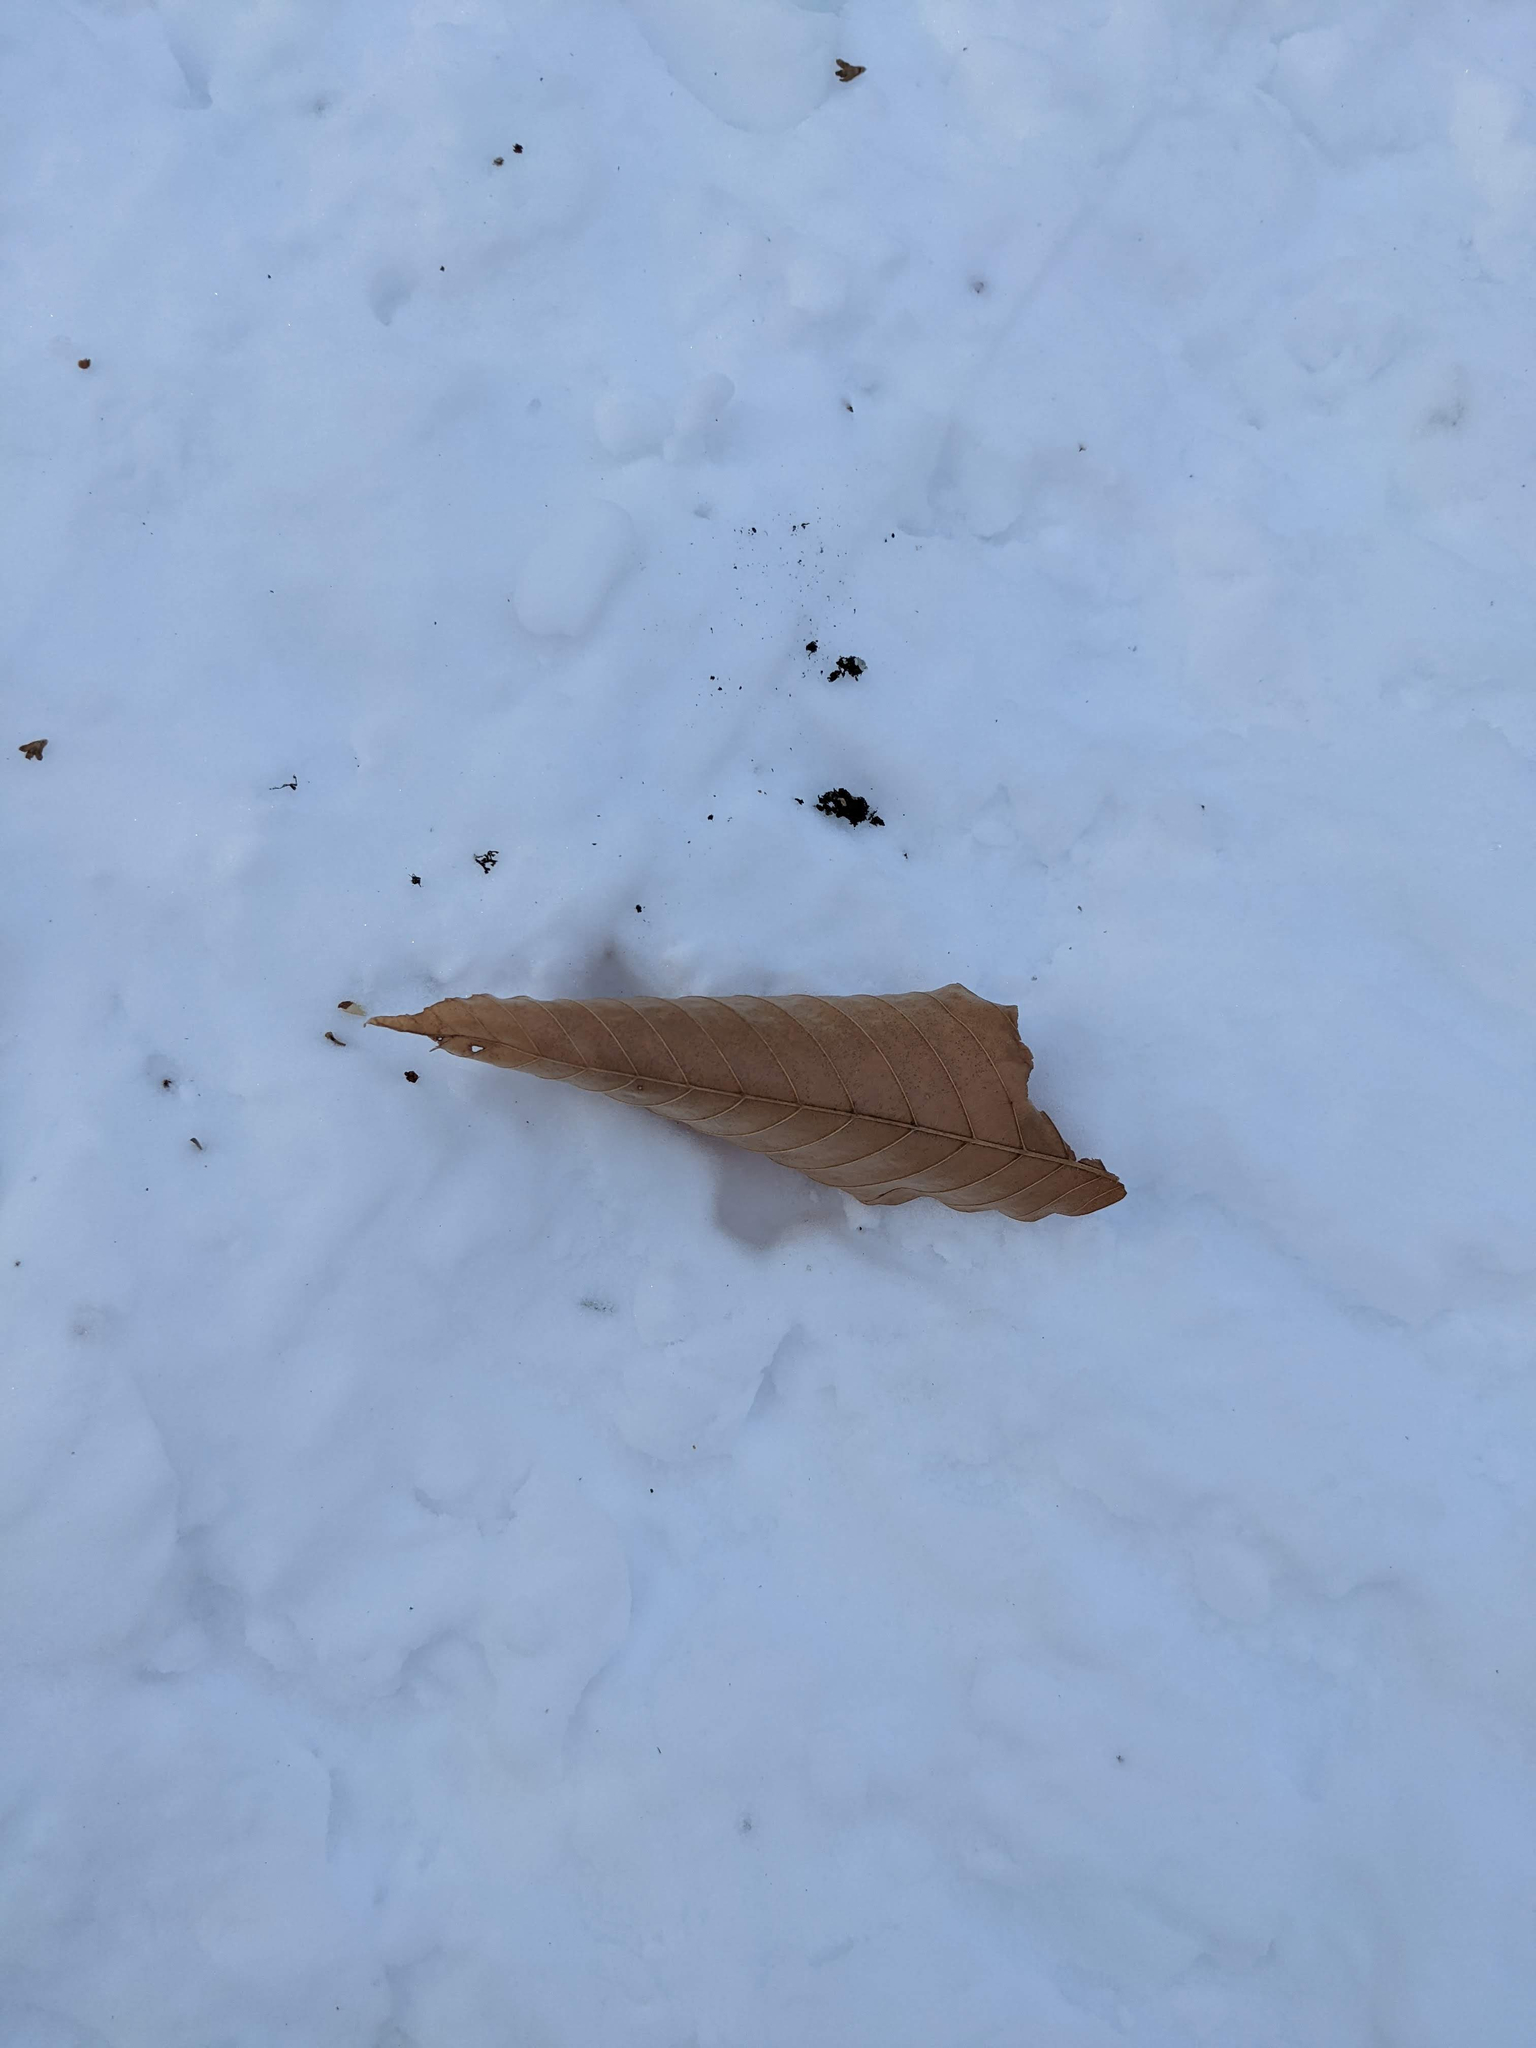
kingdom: Plantae
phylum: Tracheophyta
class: Magnoliopsida
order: Fagales
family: Fagaceae
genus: Fagus
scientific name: Fagus grandifolia
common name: American beech
